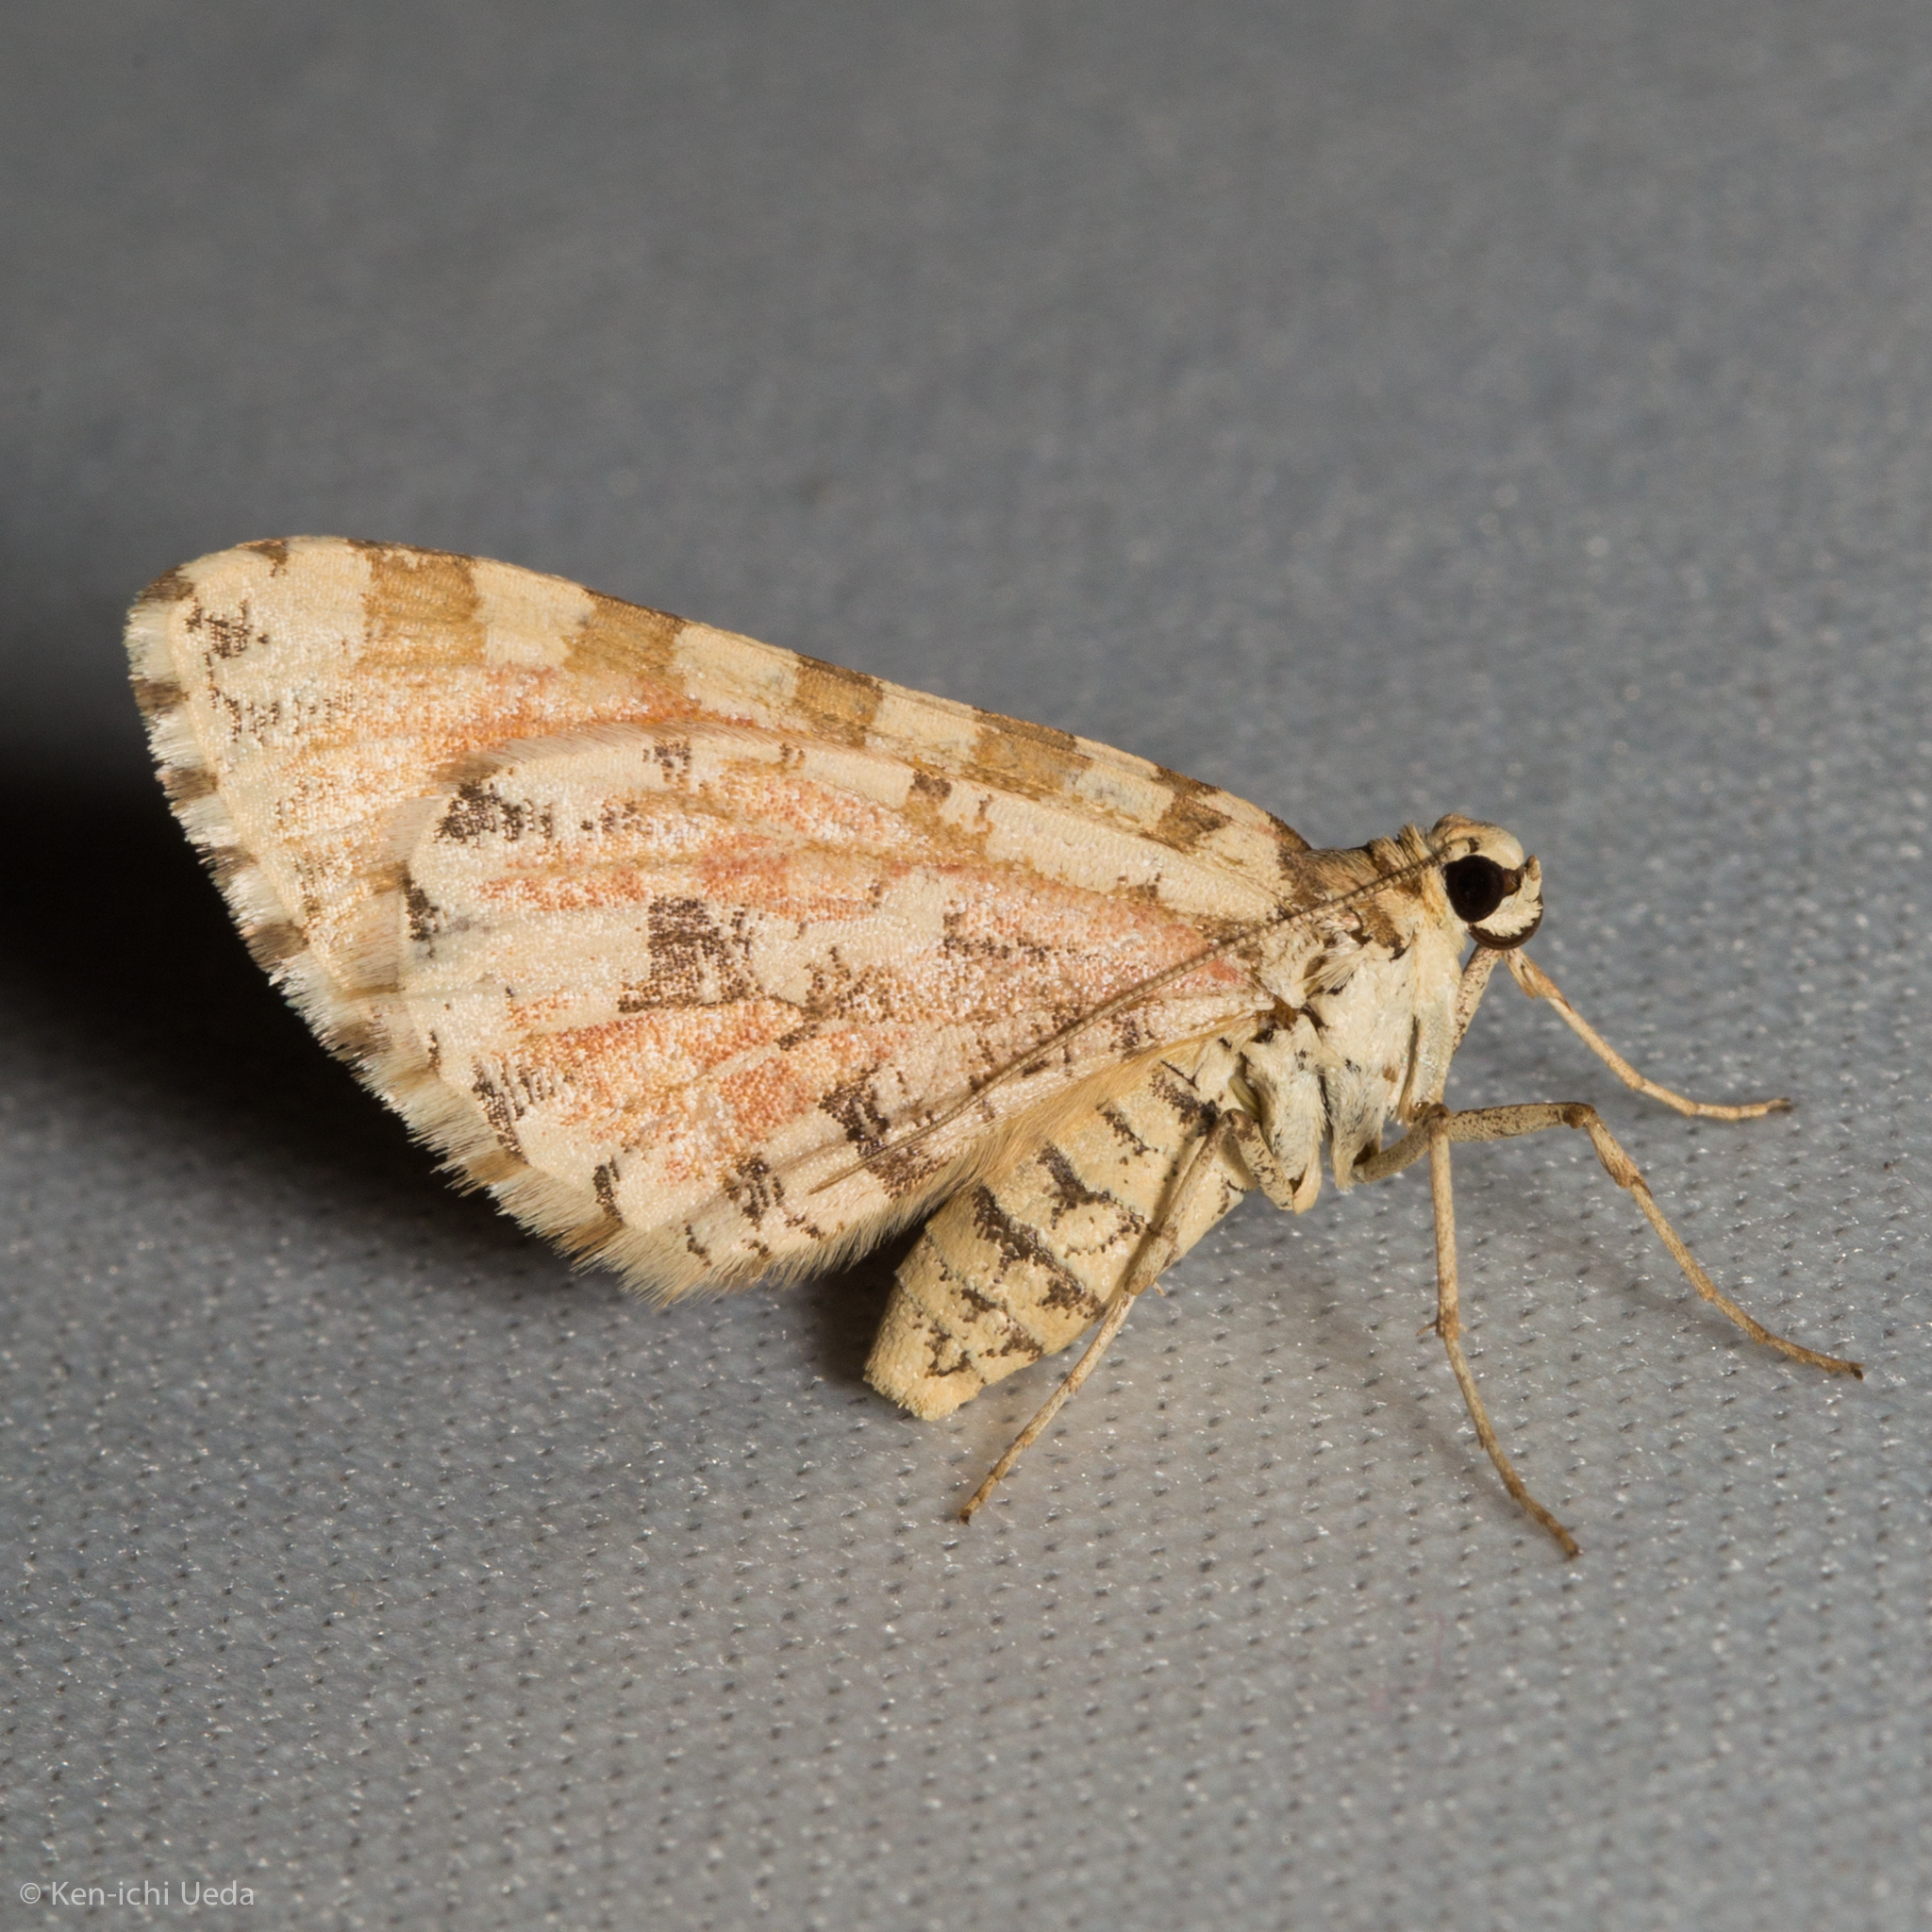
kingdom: Animalia
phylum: Arthropoda
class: Insecta
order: Lepidoptera
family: Geometridae
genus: Stamnodes
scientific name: Stamnodes tessellata
